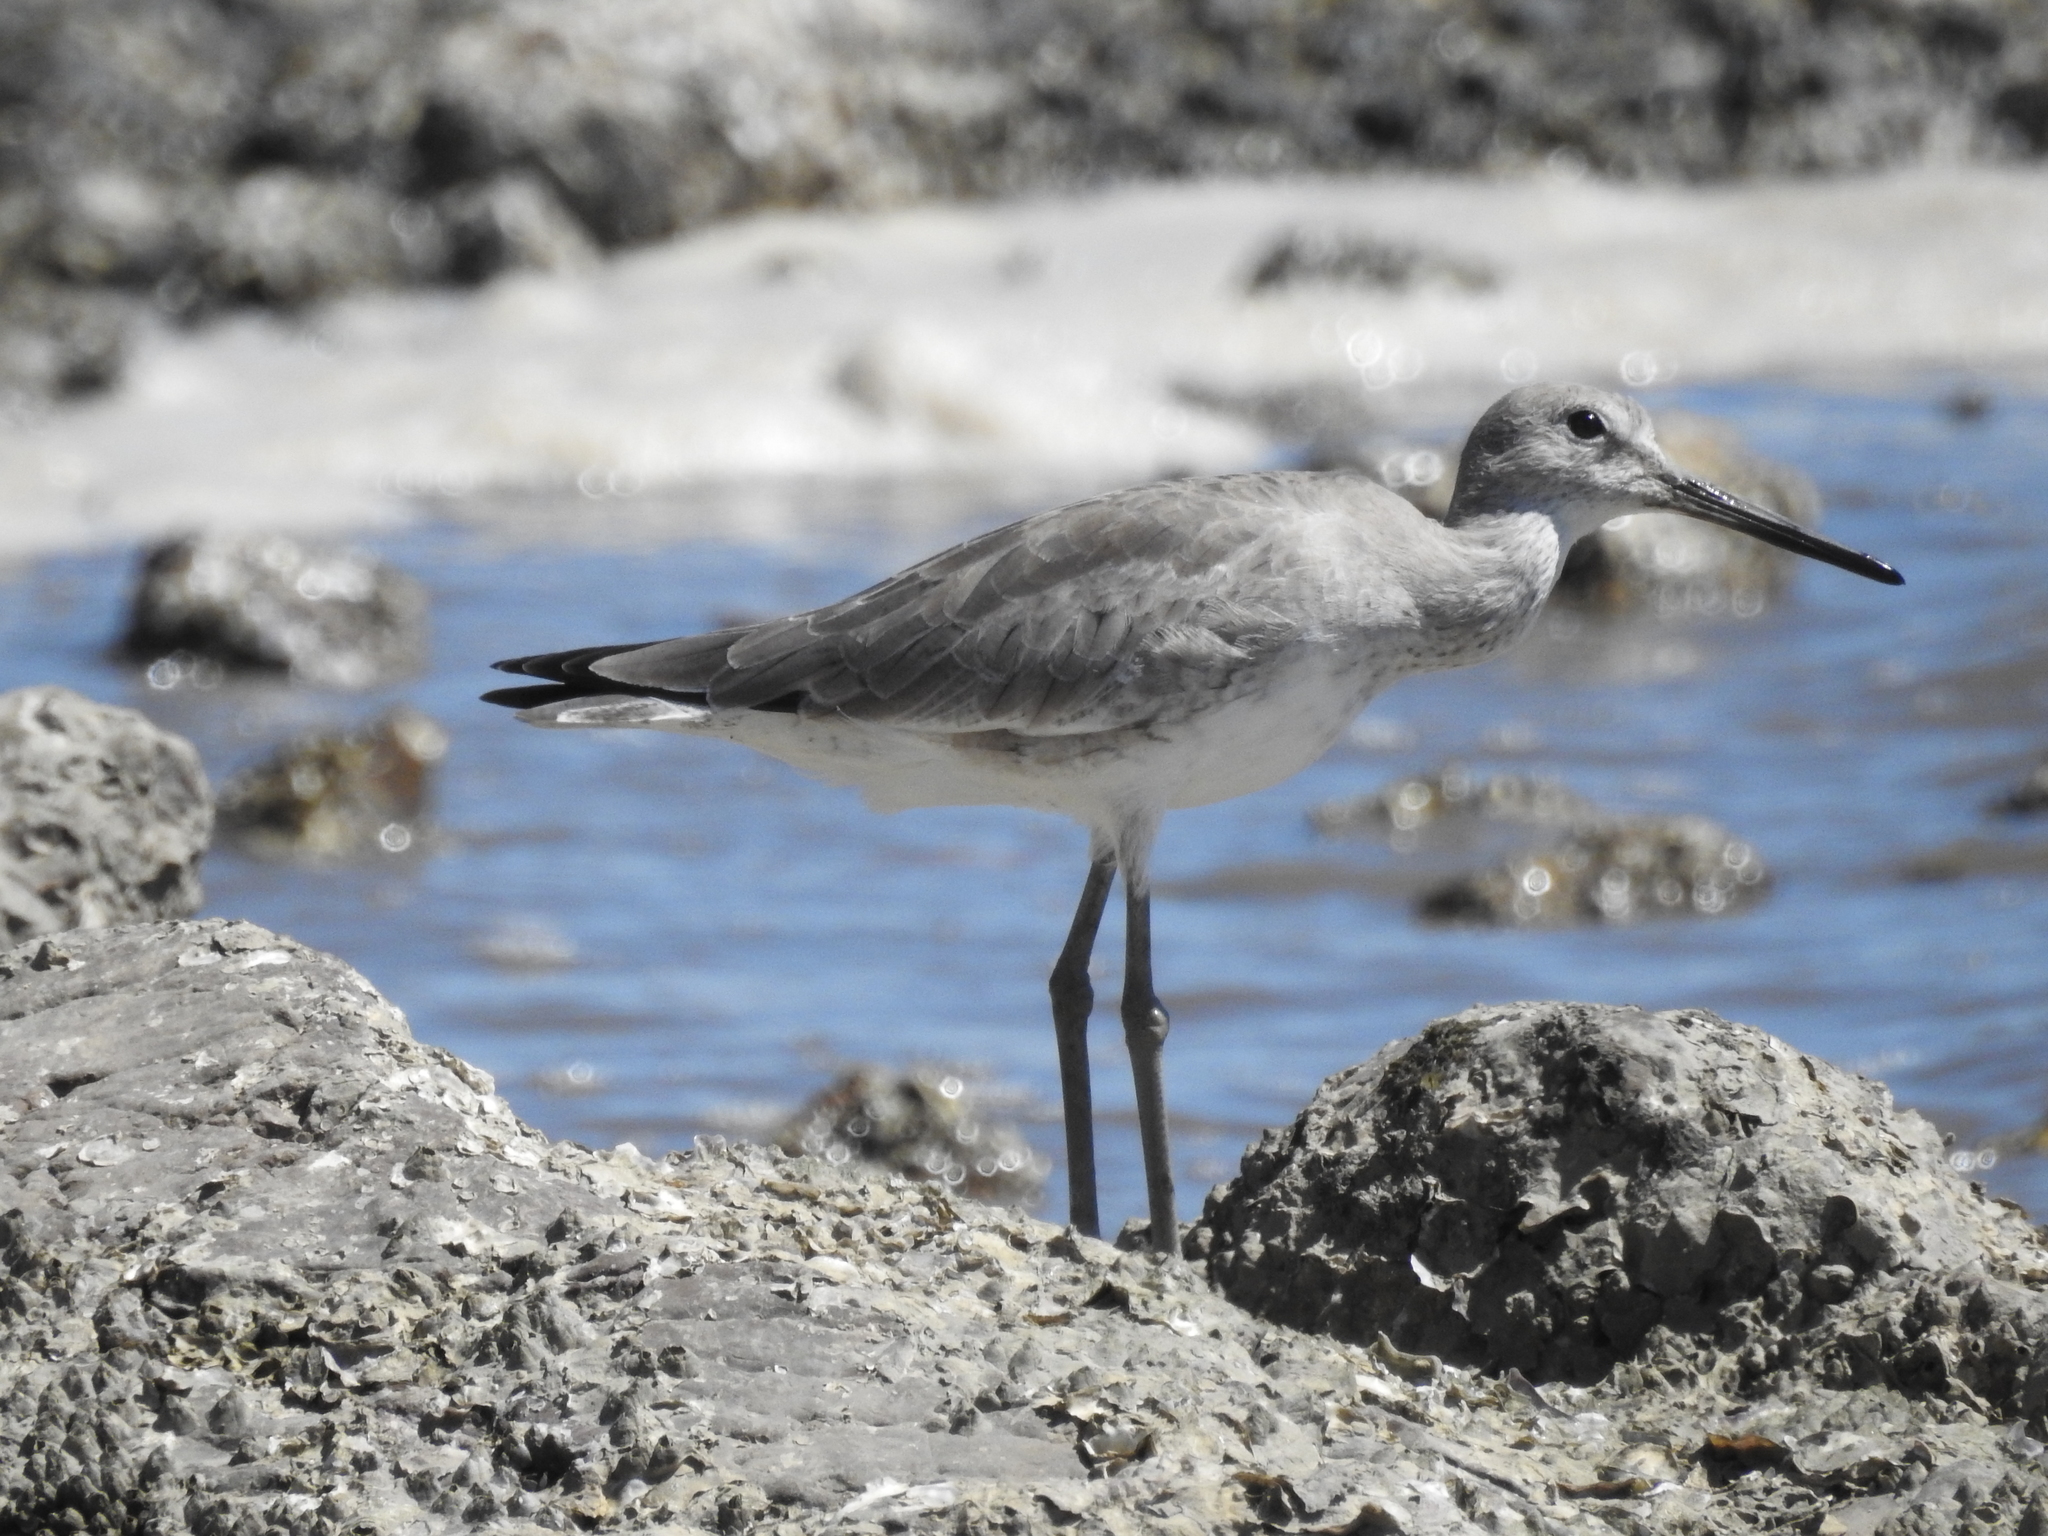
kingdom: Animalia
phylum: Chordata
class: Aves
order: Charadriiformes
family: Scolopacidae
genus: Tringa
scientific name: Tringa semipalmata
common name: Willet
